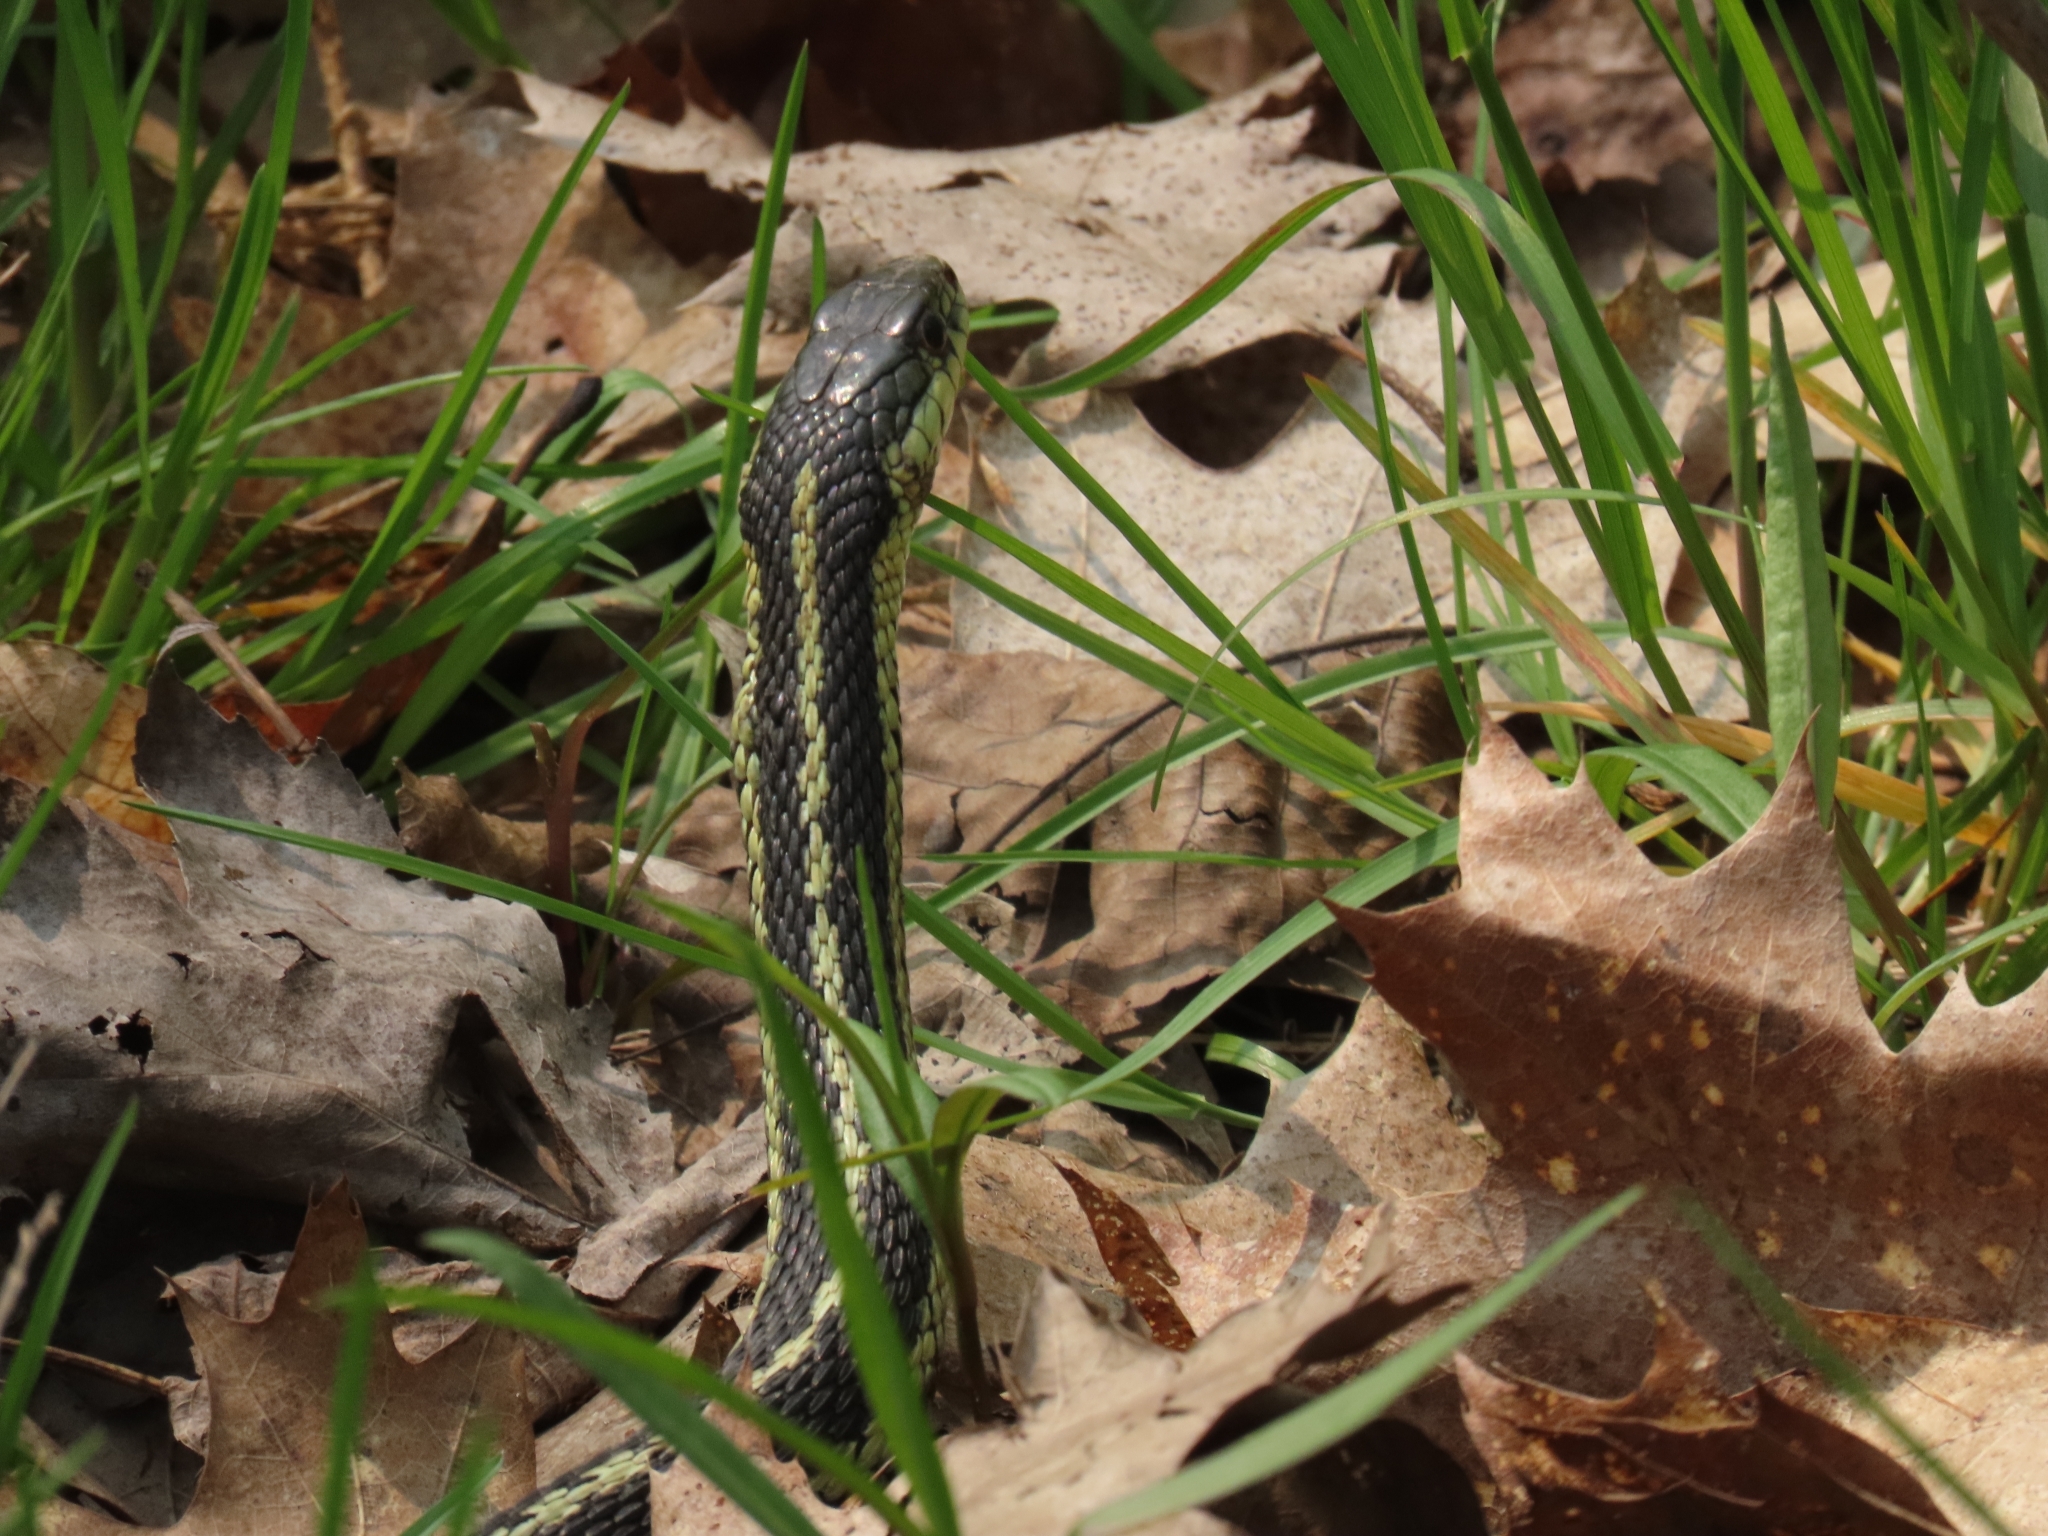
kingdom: Animalia
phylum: Chordata
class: Squamata
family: Colubridae
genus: Thamnophis
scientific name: Thamnophis sirtalis
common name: Common garter snake
